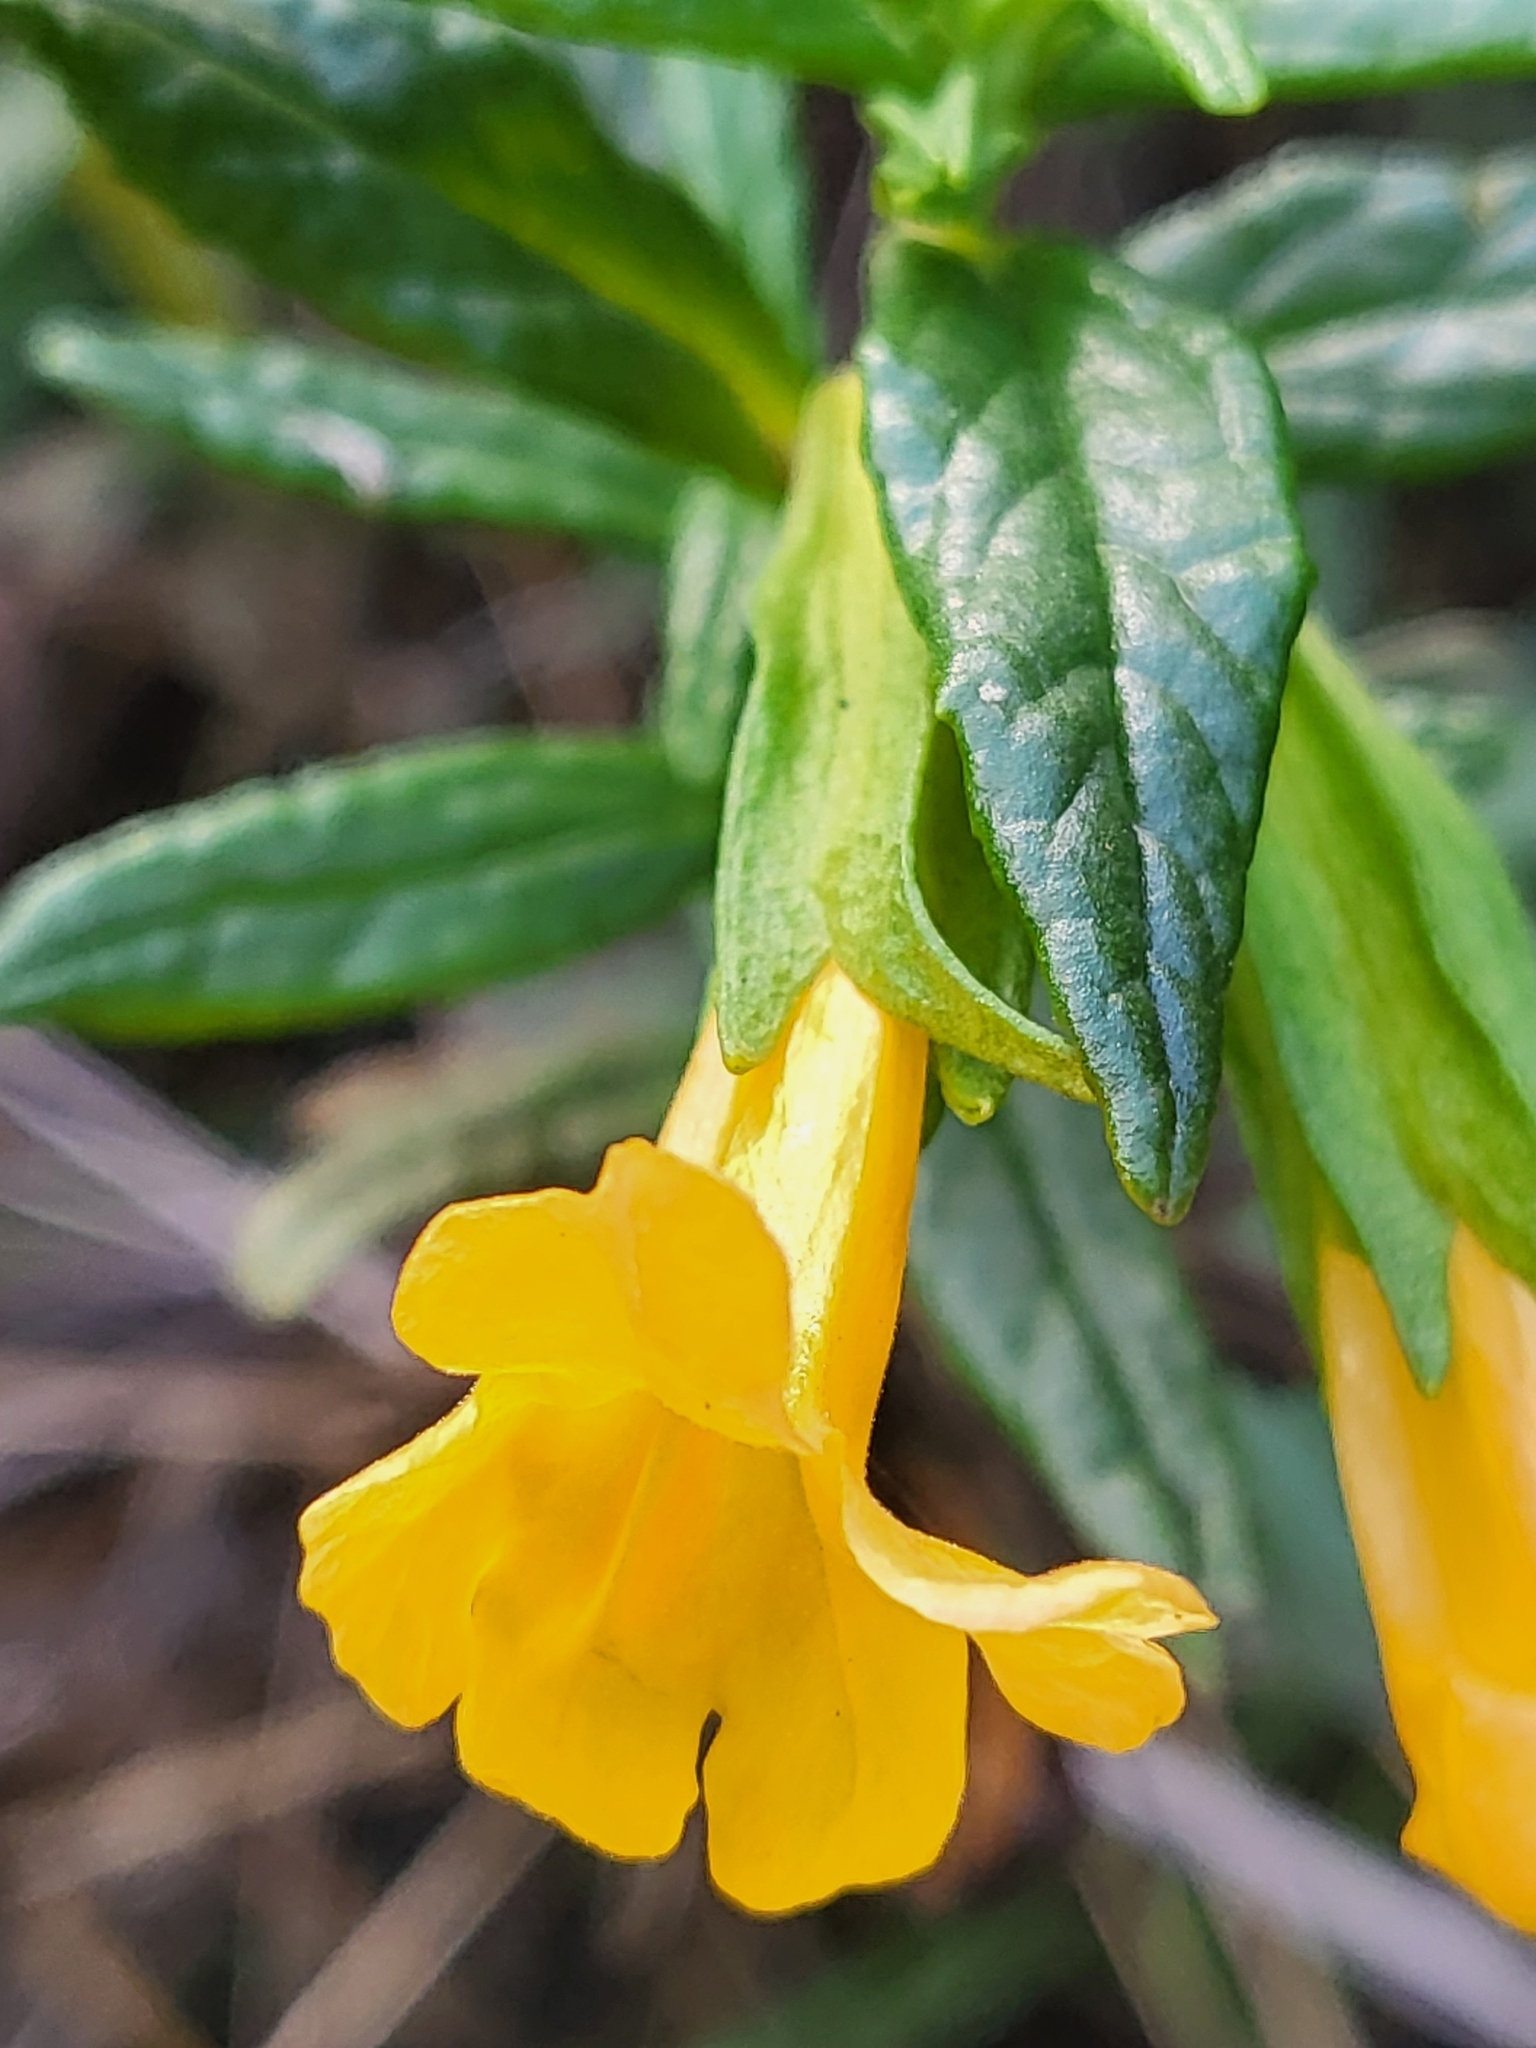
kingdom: Plantae
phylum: Tracheophyta
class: Magnoliopsida
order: Lamiales
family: Phrymaceae
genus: Diplacus
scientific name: Diplacus aurantiacus
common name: Bush monkey-flower
